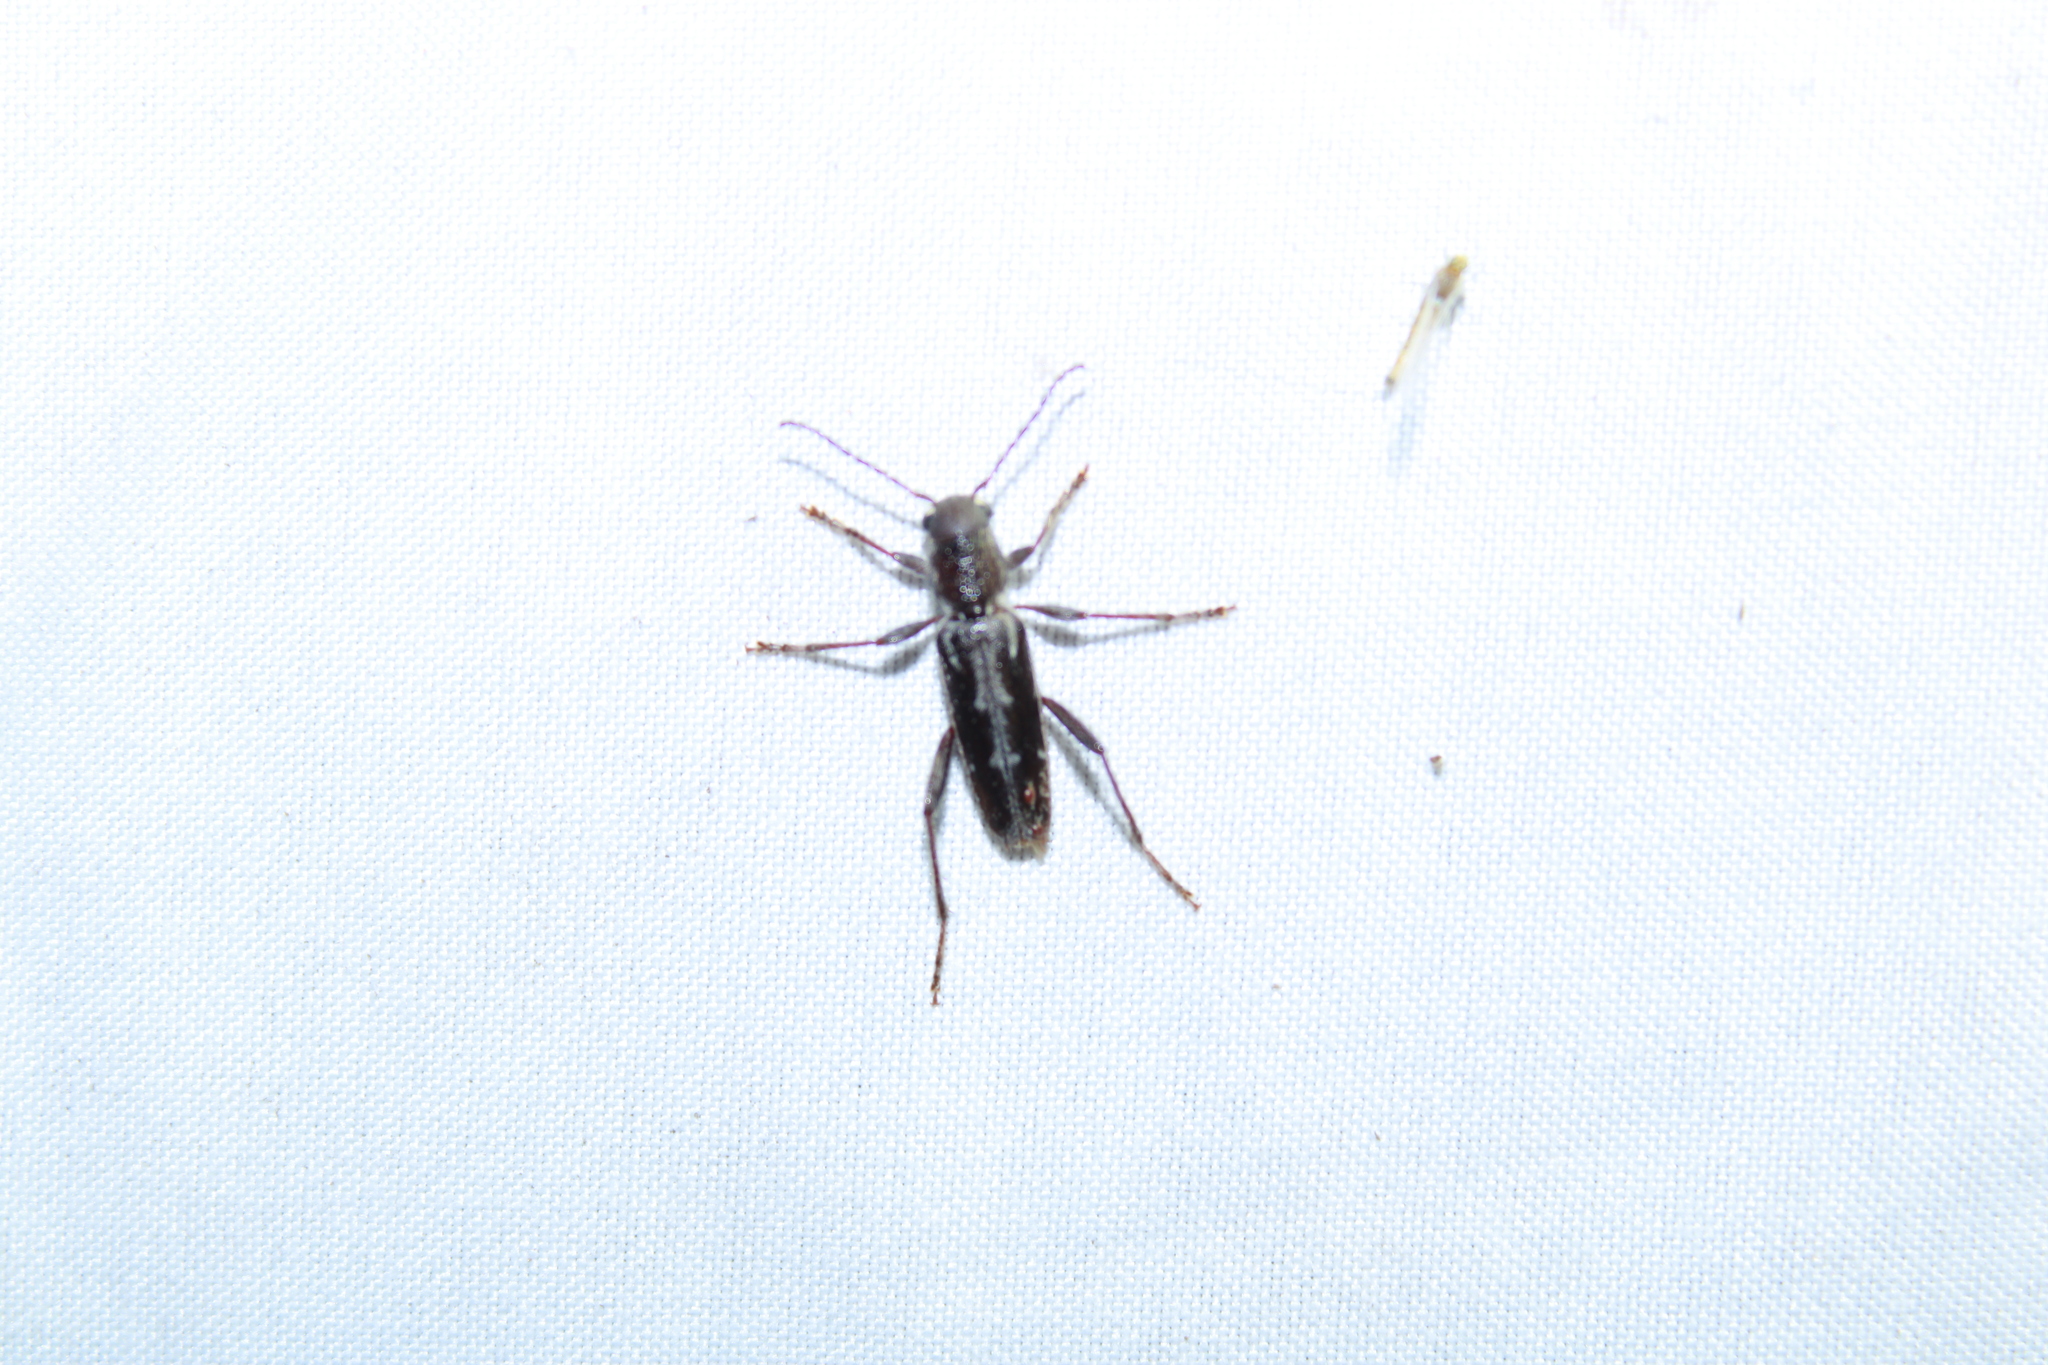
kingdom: Animalia
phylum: Arthropoda
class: Insecta
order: Coleoptera
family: Cerambycidae
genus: Xylotrechus
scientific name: Xylotrechus sagittatus
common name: Arrowhead borer
